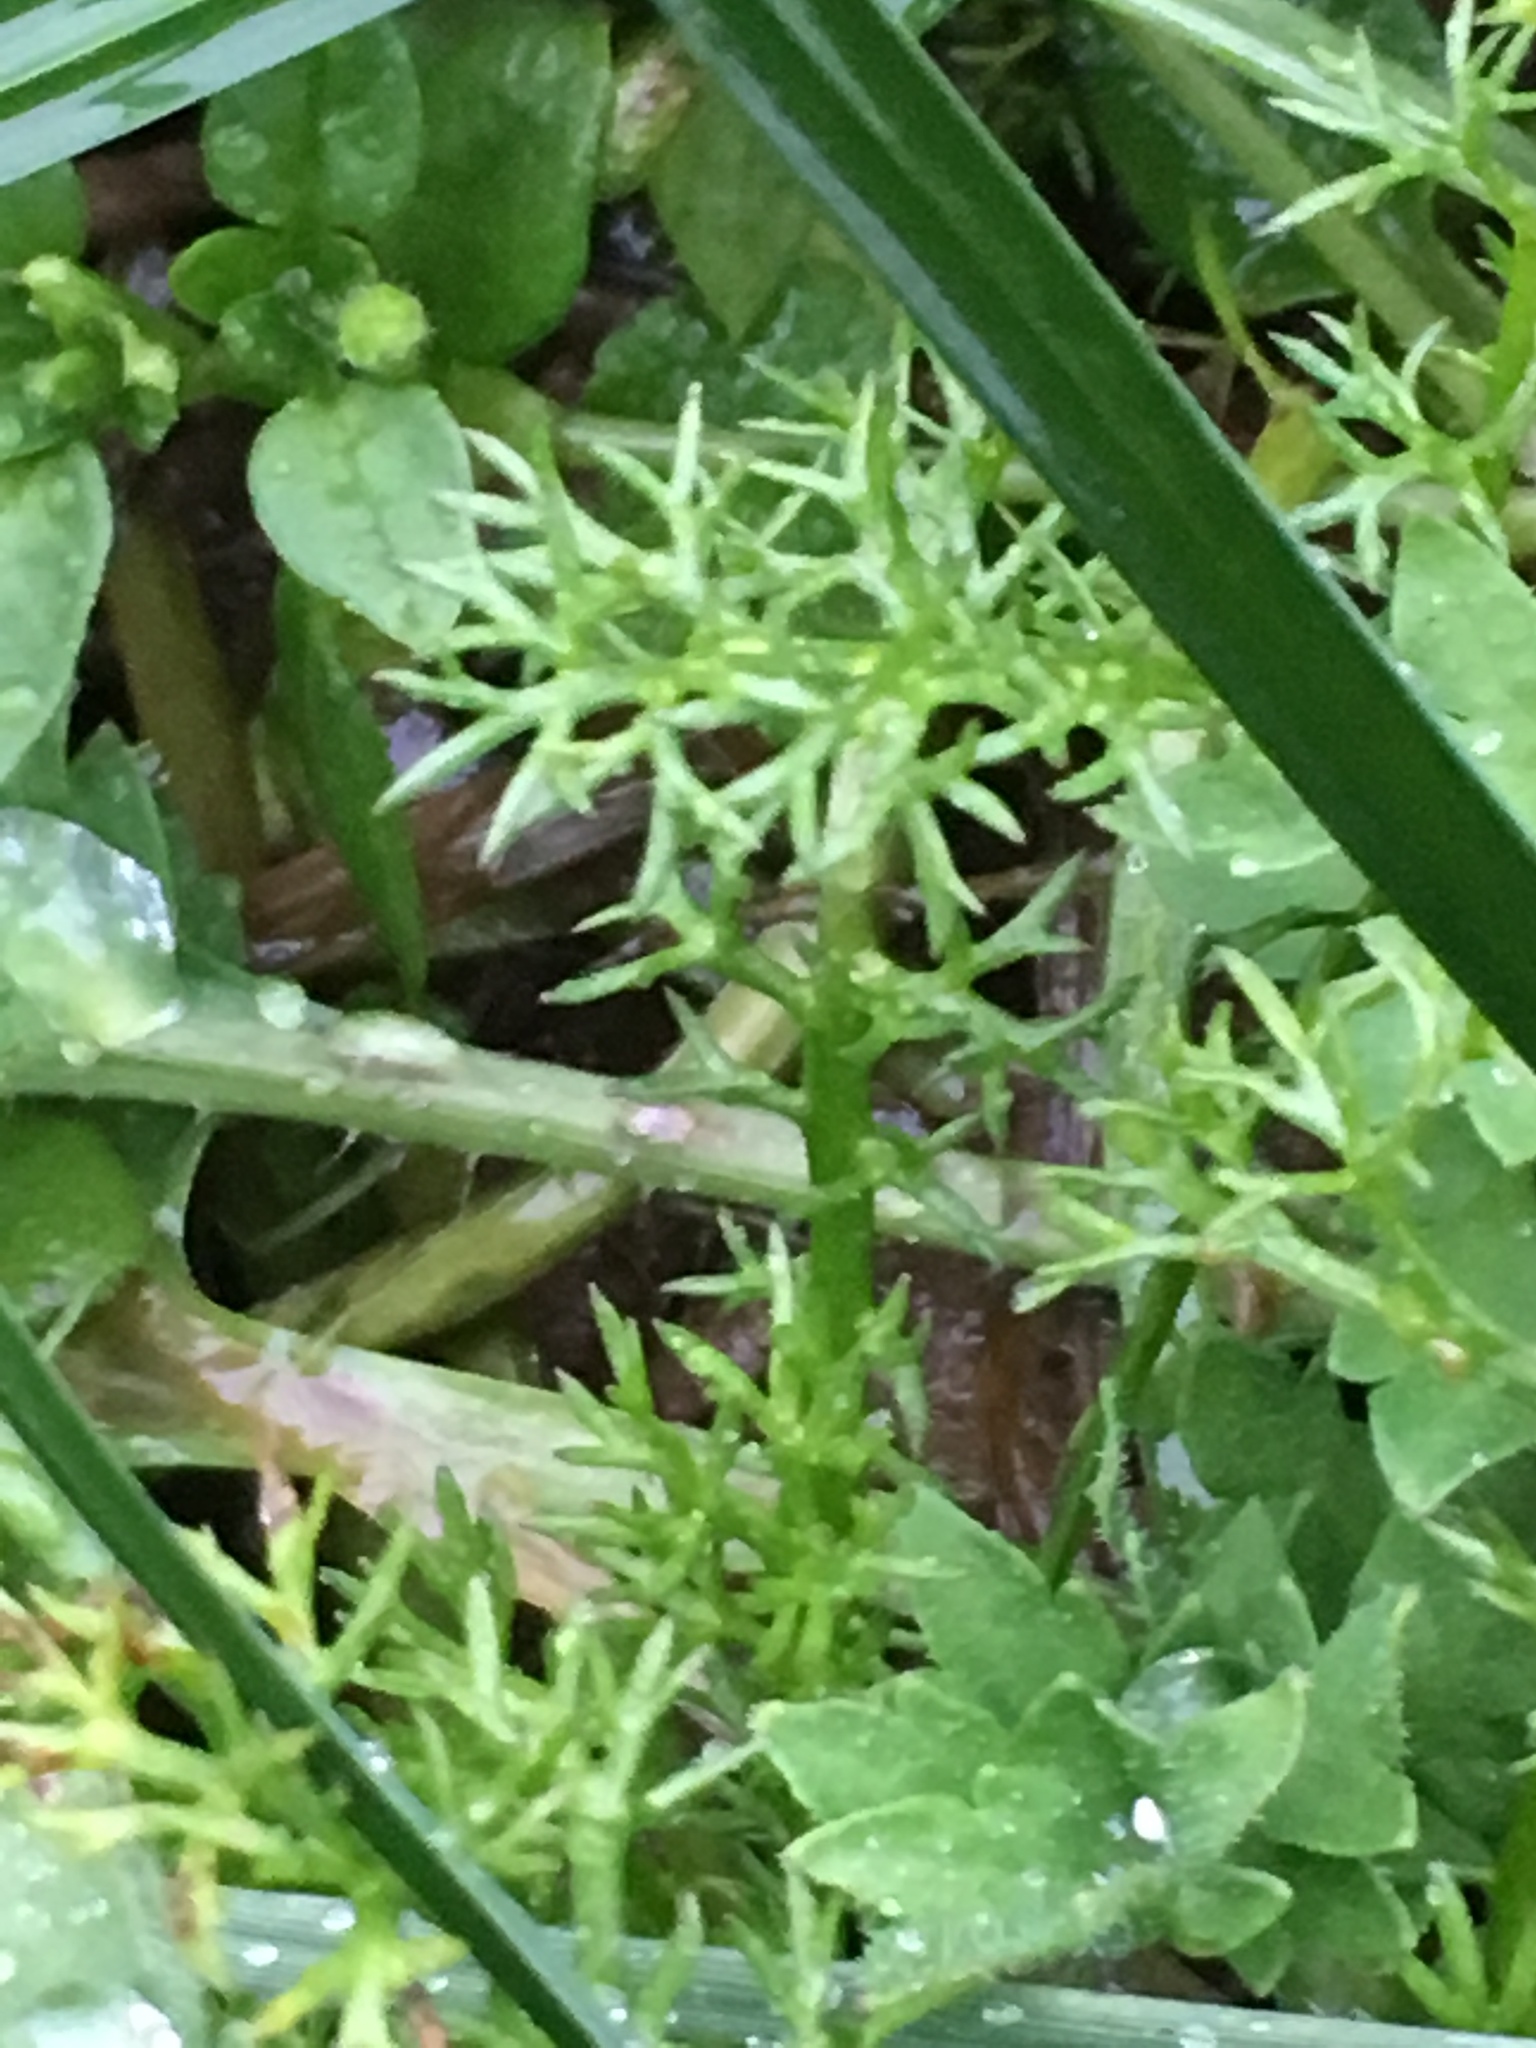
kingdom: Plantae
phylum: Tracheophyta
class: Magnoliopsida
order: Asterales
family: Asteraceae
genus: Matricaria
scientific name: Matricaria chamomilla
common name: Scented mayweed
